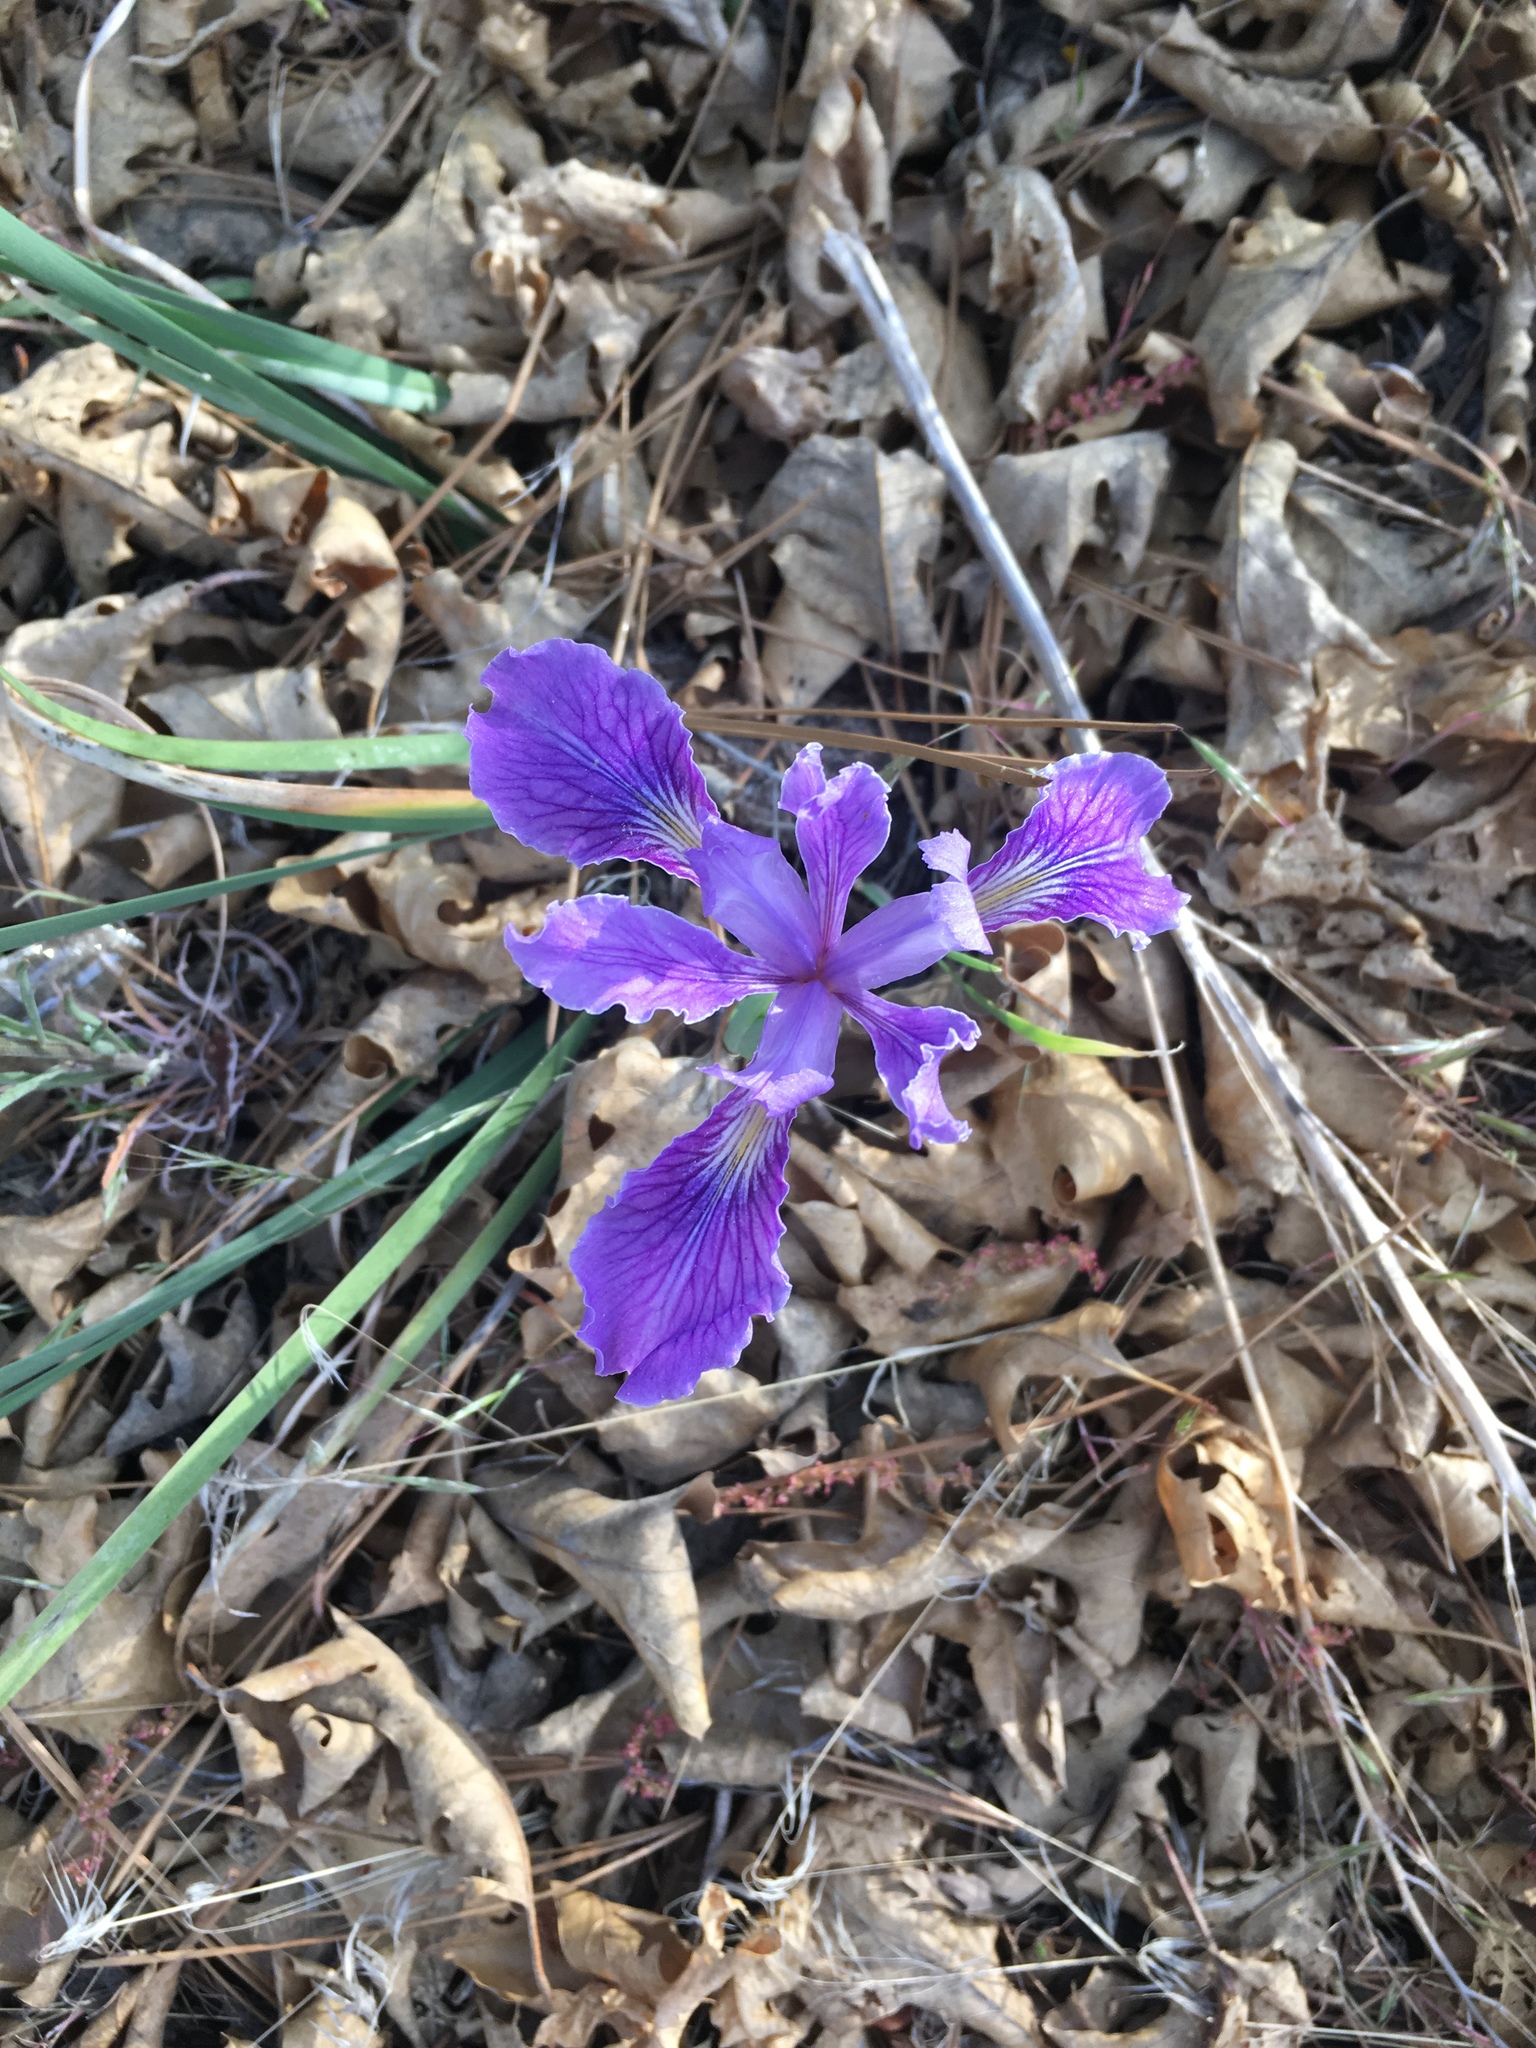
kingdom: Plantae
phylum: Tracheophyta
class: Liliopsida
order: Asparagales
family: Iridaceae
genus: Iris
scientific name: Iris hartwegii
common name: Sierra iris
